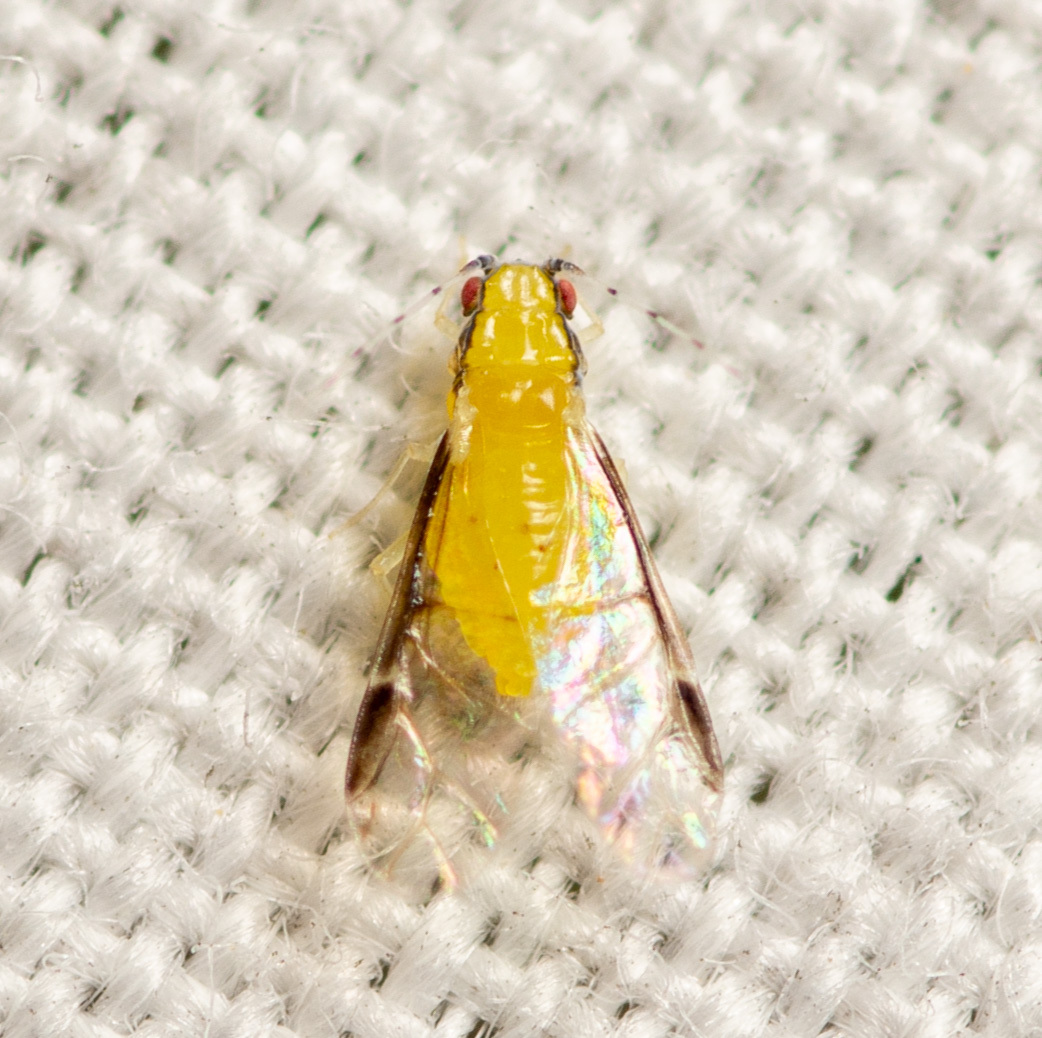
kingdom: Animalia
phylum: Arthropoda
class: Insecta
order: Hemiptera
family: Aphididae
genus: Monellia
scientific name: Monellia caryella
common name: Blackmargined aphid
